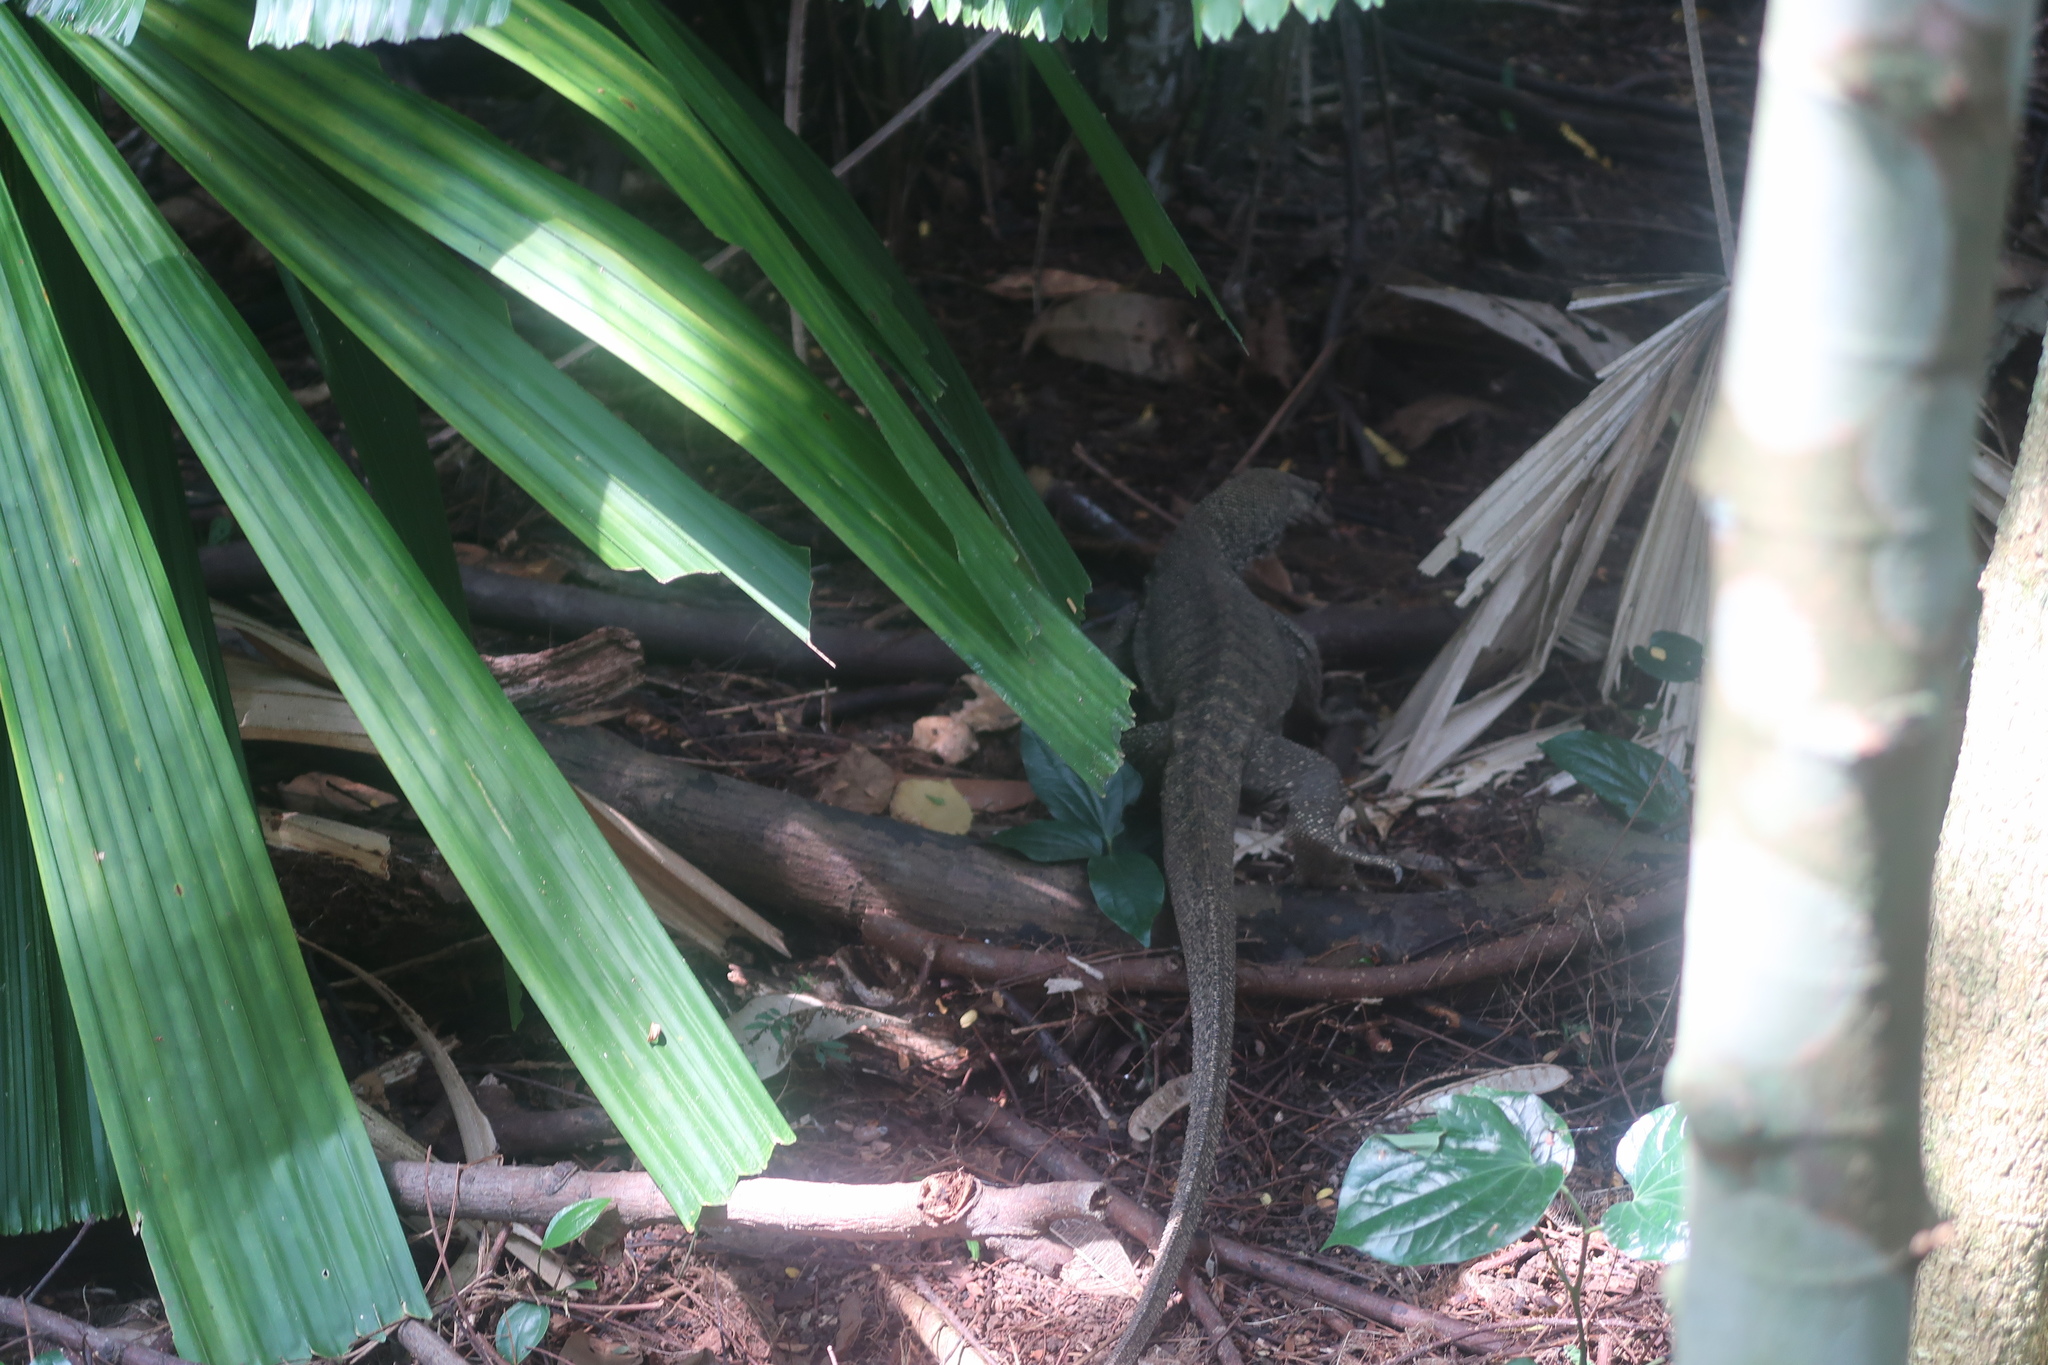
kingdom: Animalia
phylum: Chordata
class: Squamata
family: Varanidae
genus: Varanus
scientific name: Varanus nebulosus
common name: Clouded monitor
